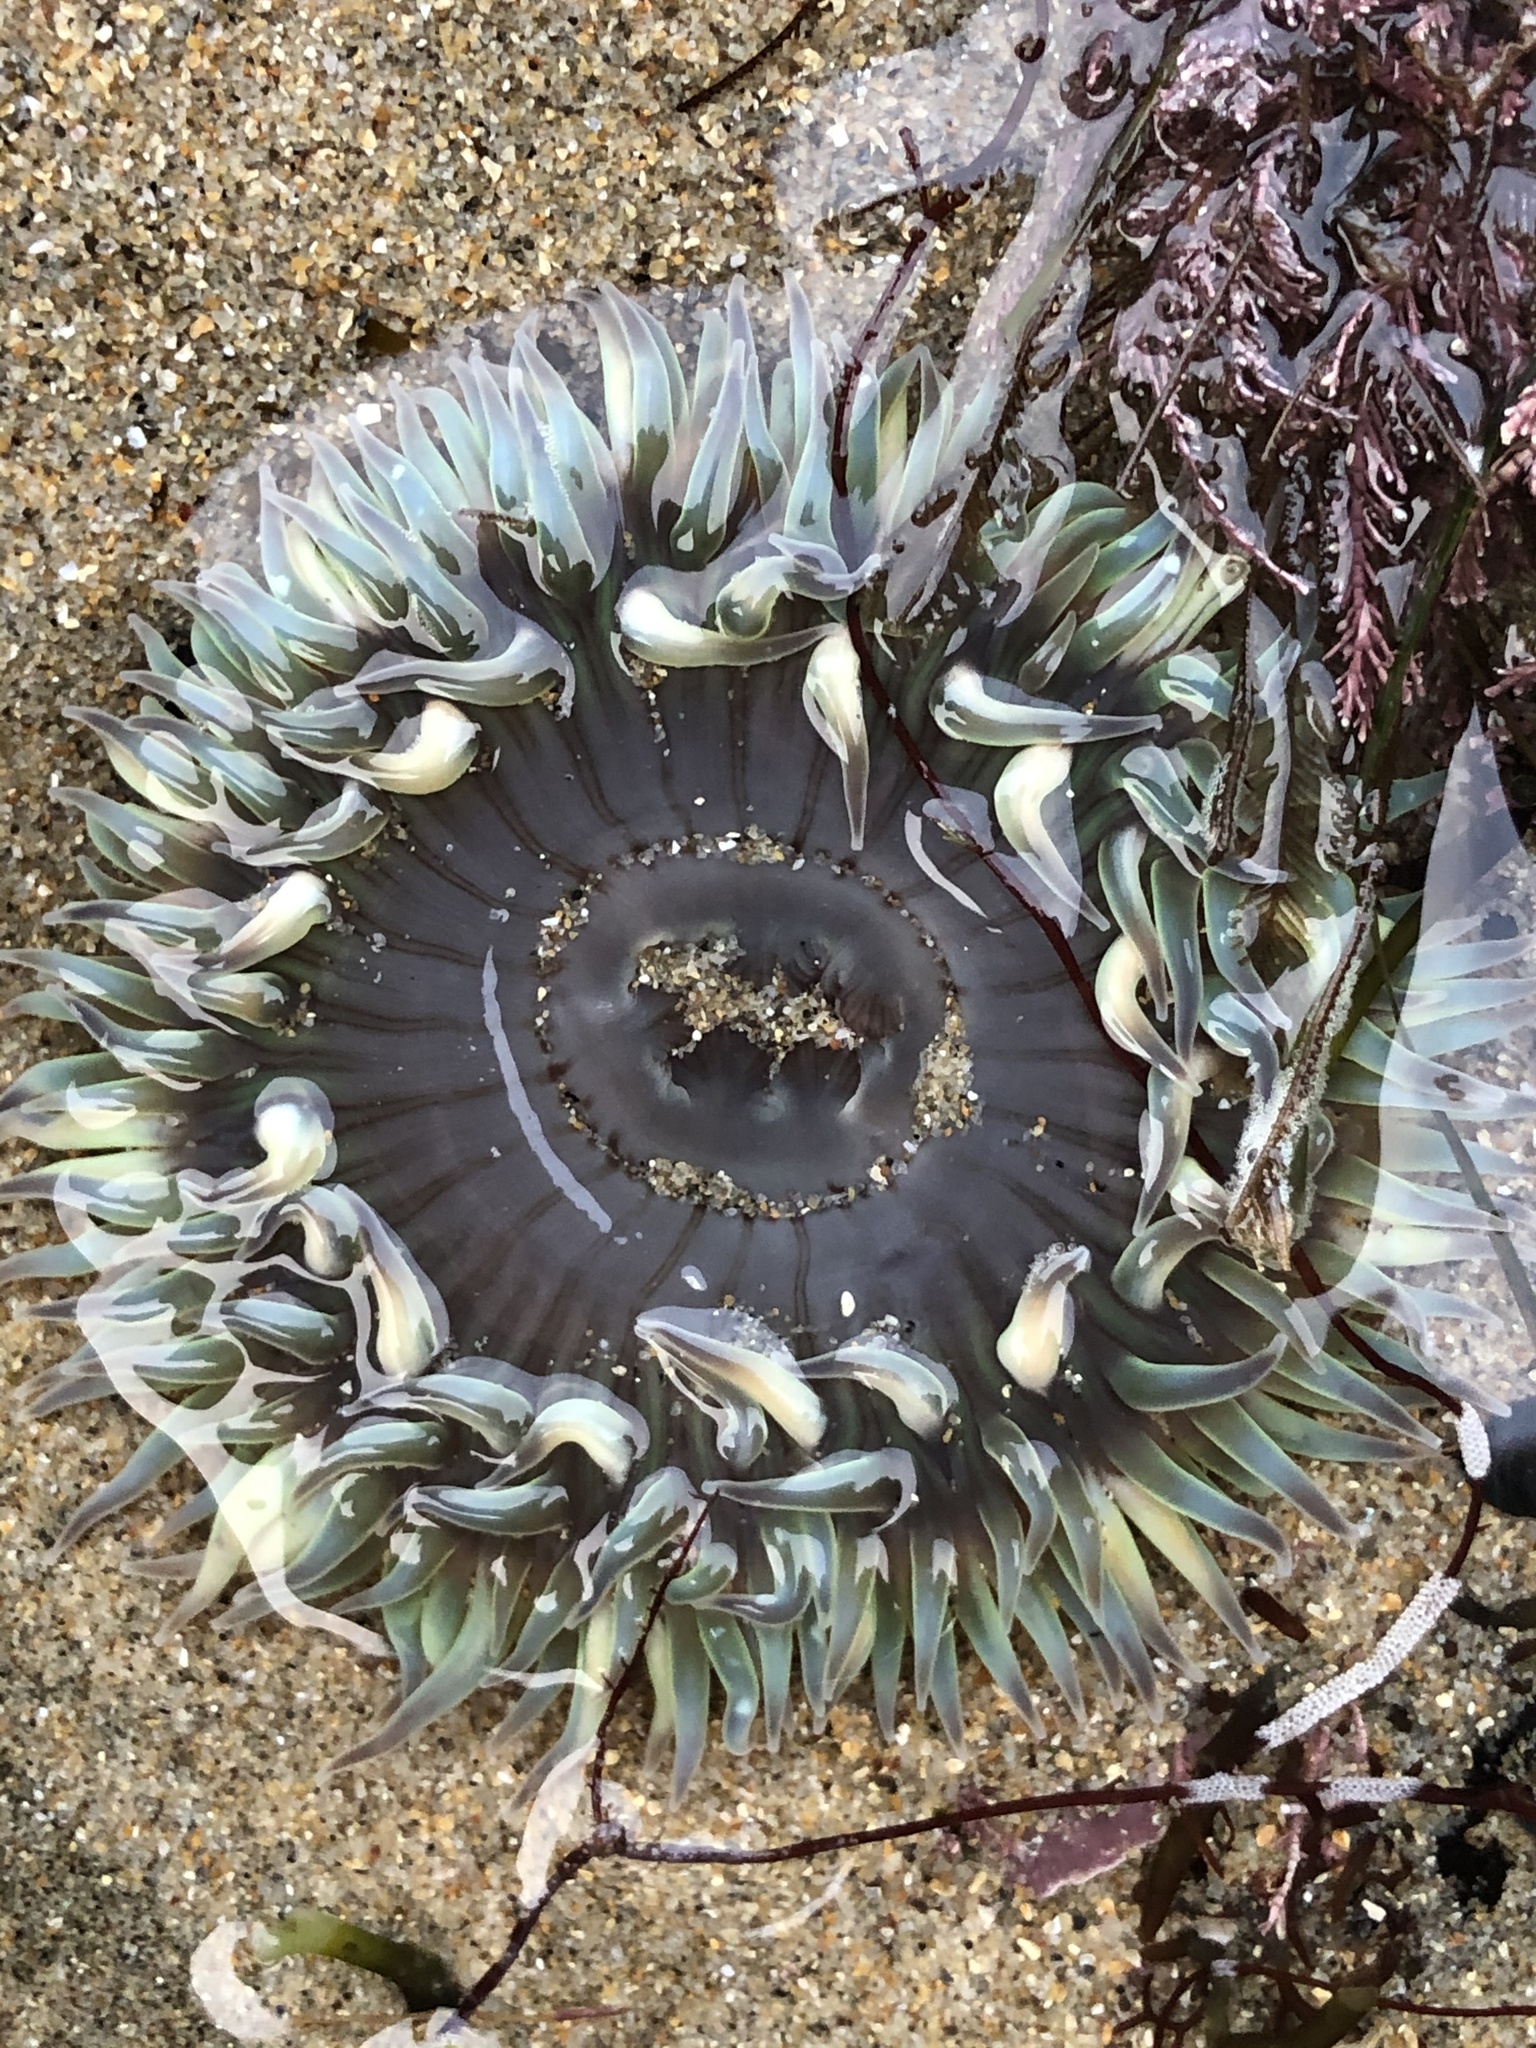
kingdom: Animalia
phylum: Cnidaria
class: Anthozoa
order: Actiniaria
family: Actiniidae
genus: Anthopleura
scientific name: Anthopleura sola
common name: Sun anemone
